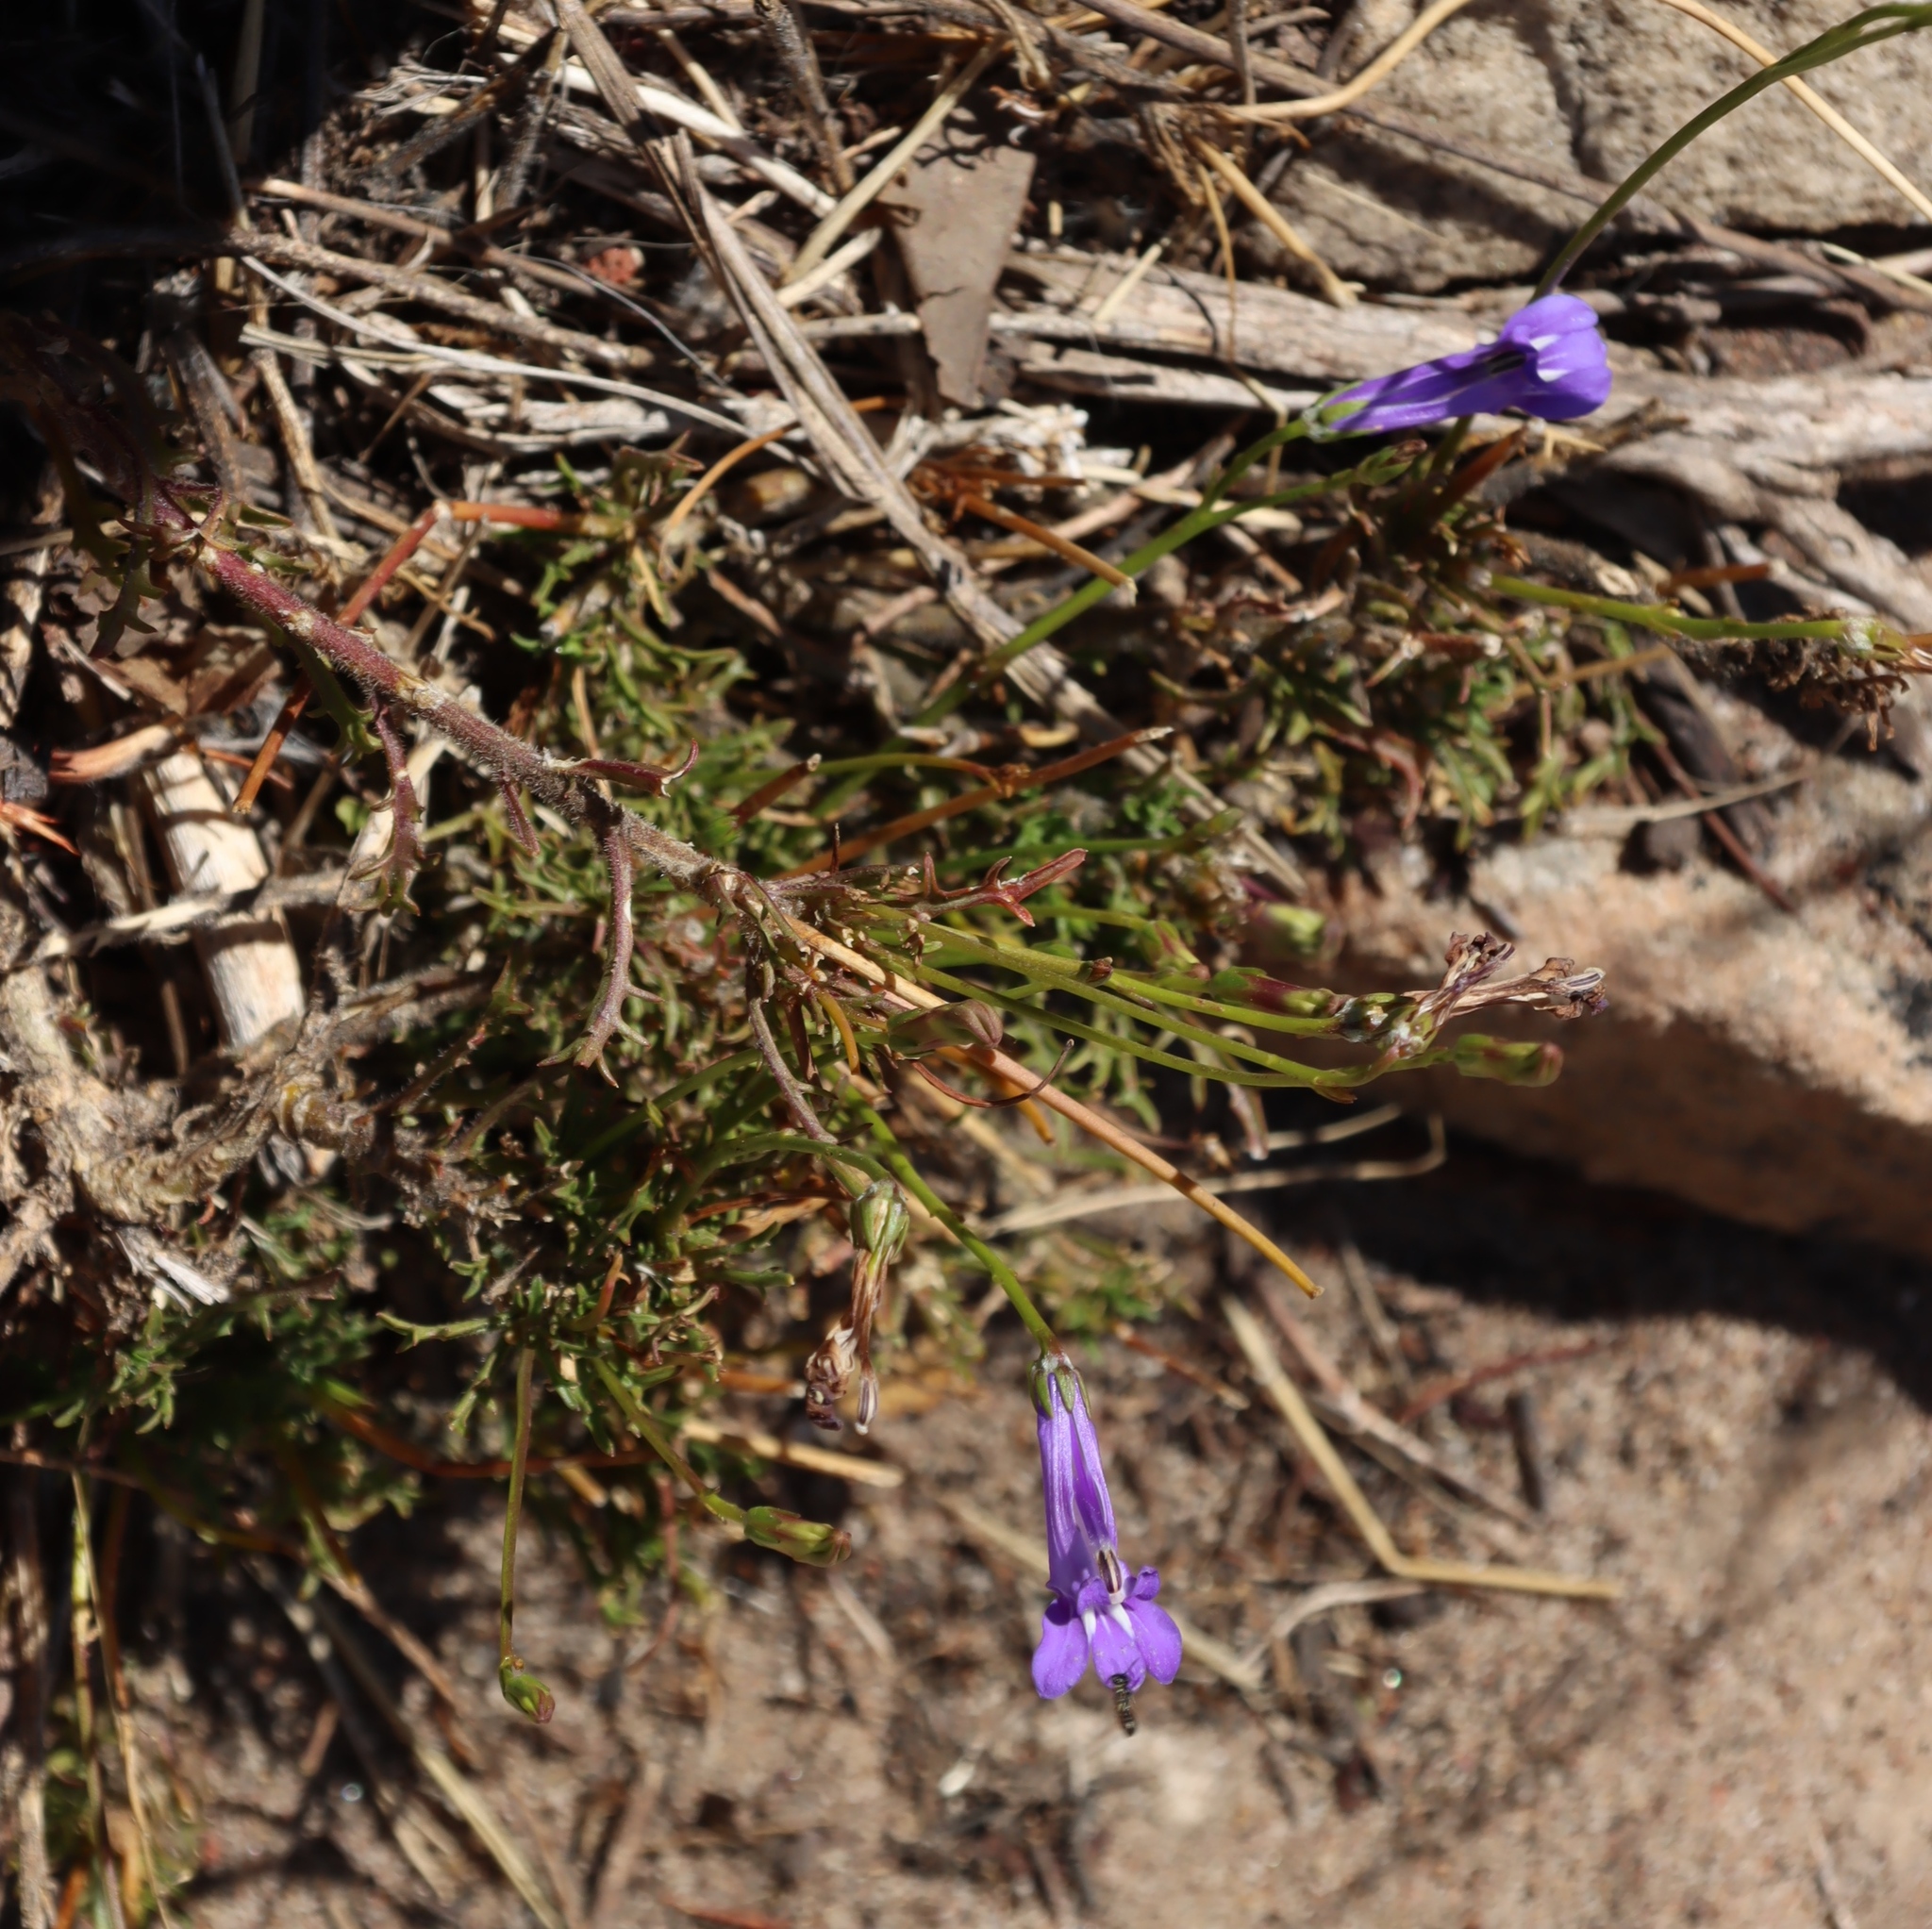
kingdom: Plantae
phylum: Tracheophyta
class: Magnoliopsida
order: Asterales
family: Campanulaceae
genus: Lobelia
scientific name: Lobelia coronopifolia
